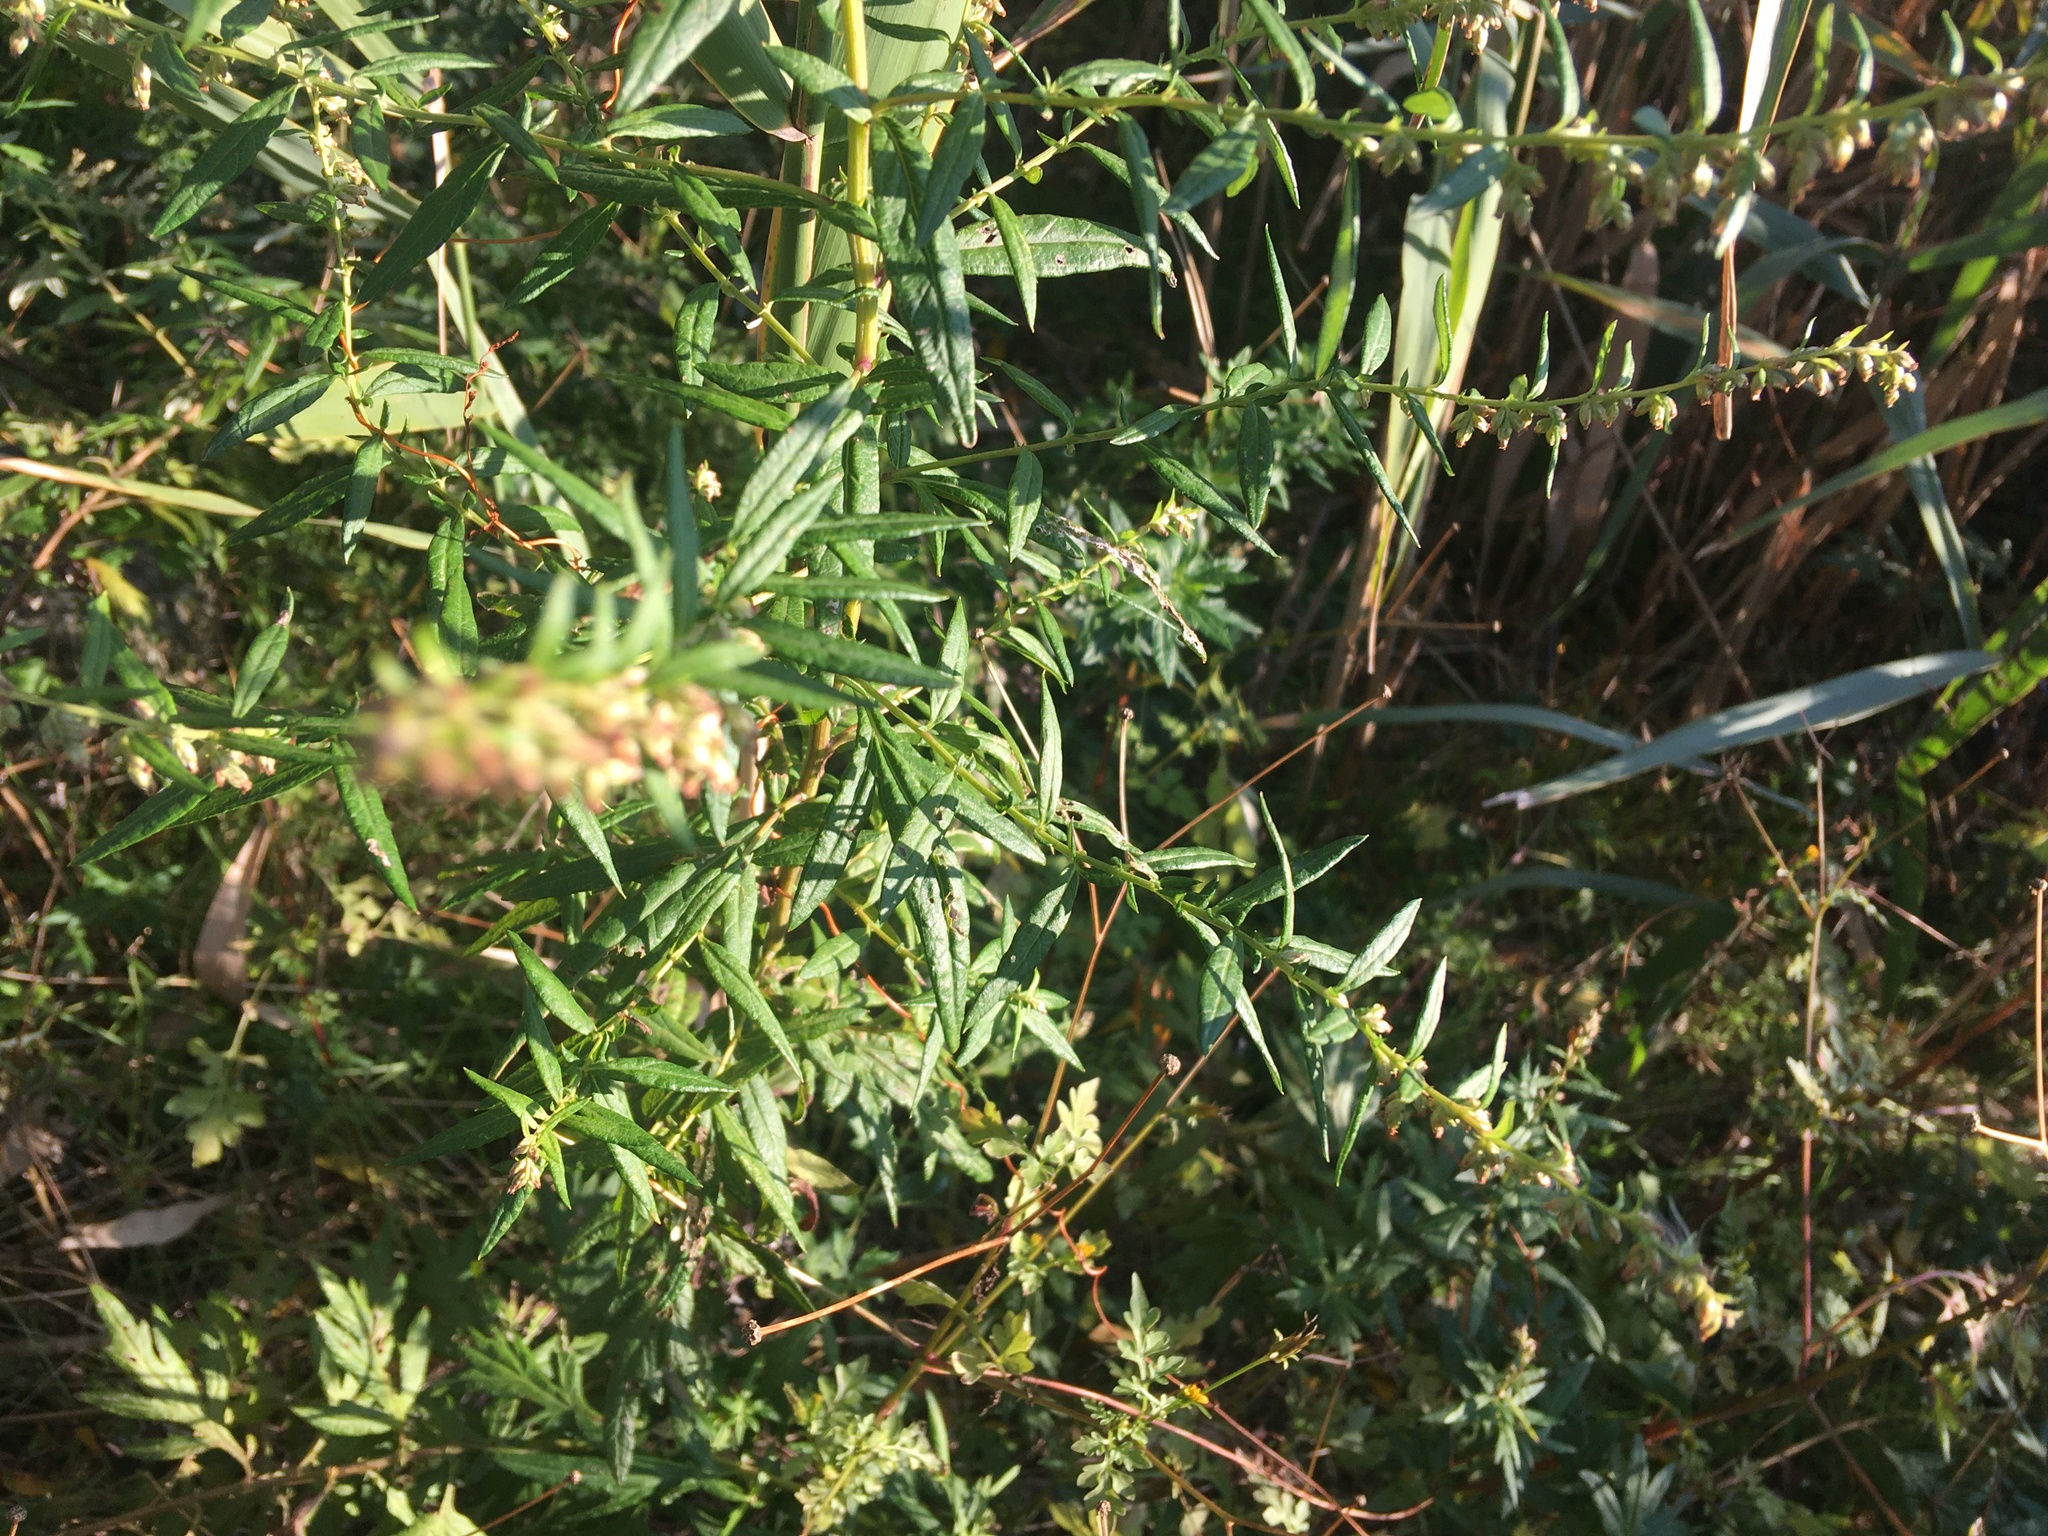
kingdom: Plantae
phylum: Tracheophyta
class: Magnoliopsida
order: Asterales
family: Asteraceae
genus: Artemisia
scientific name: Artemisia vulgaris
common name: Mugwort
